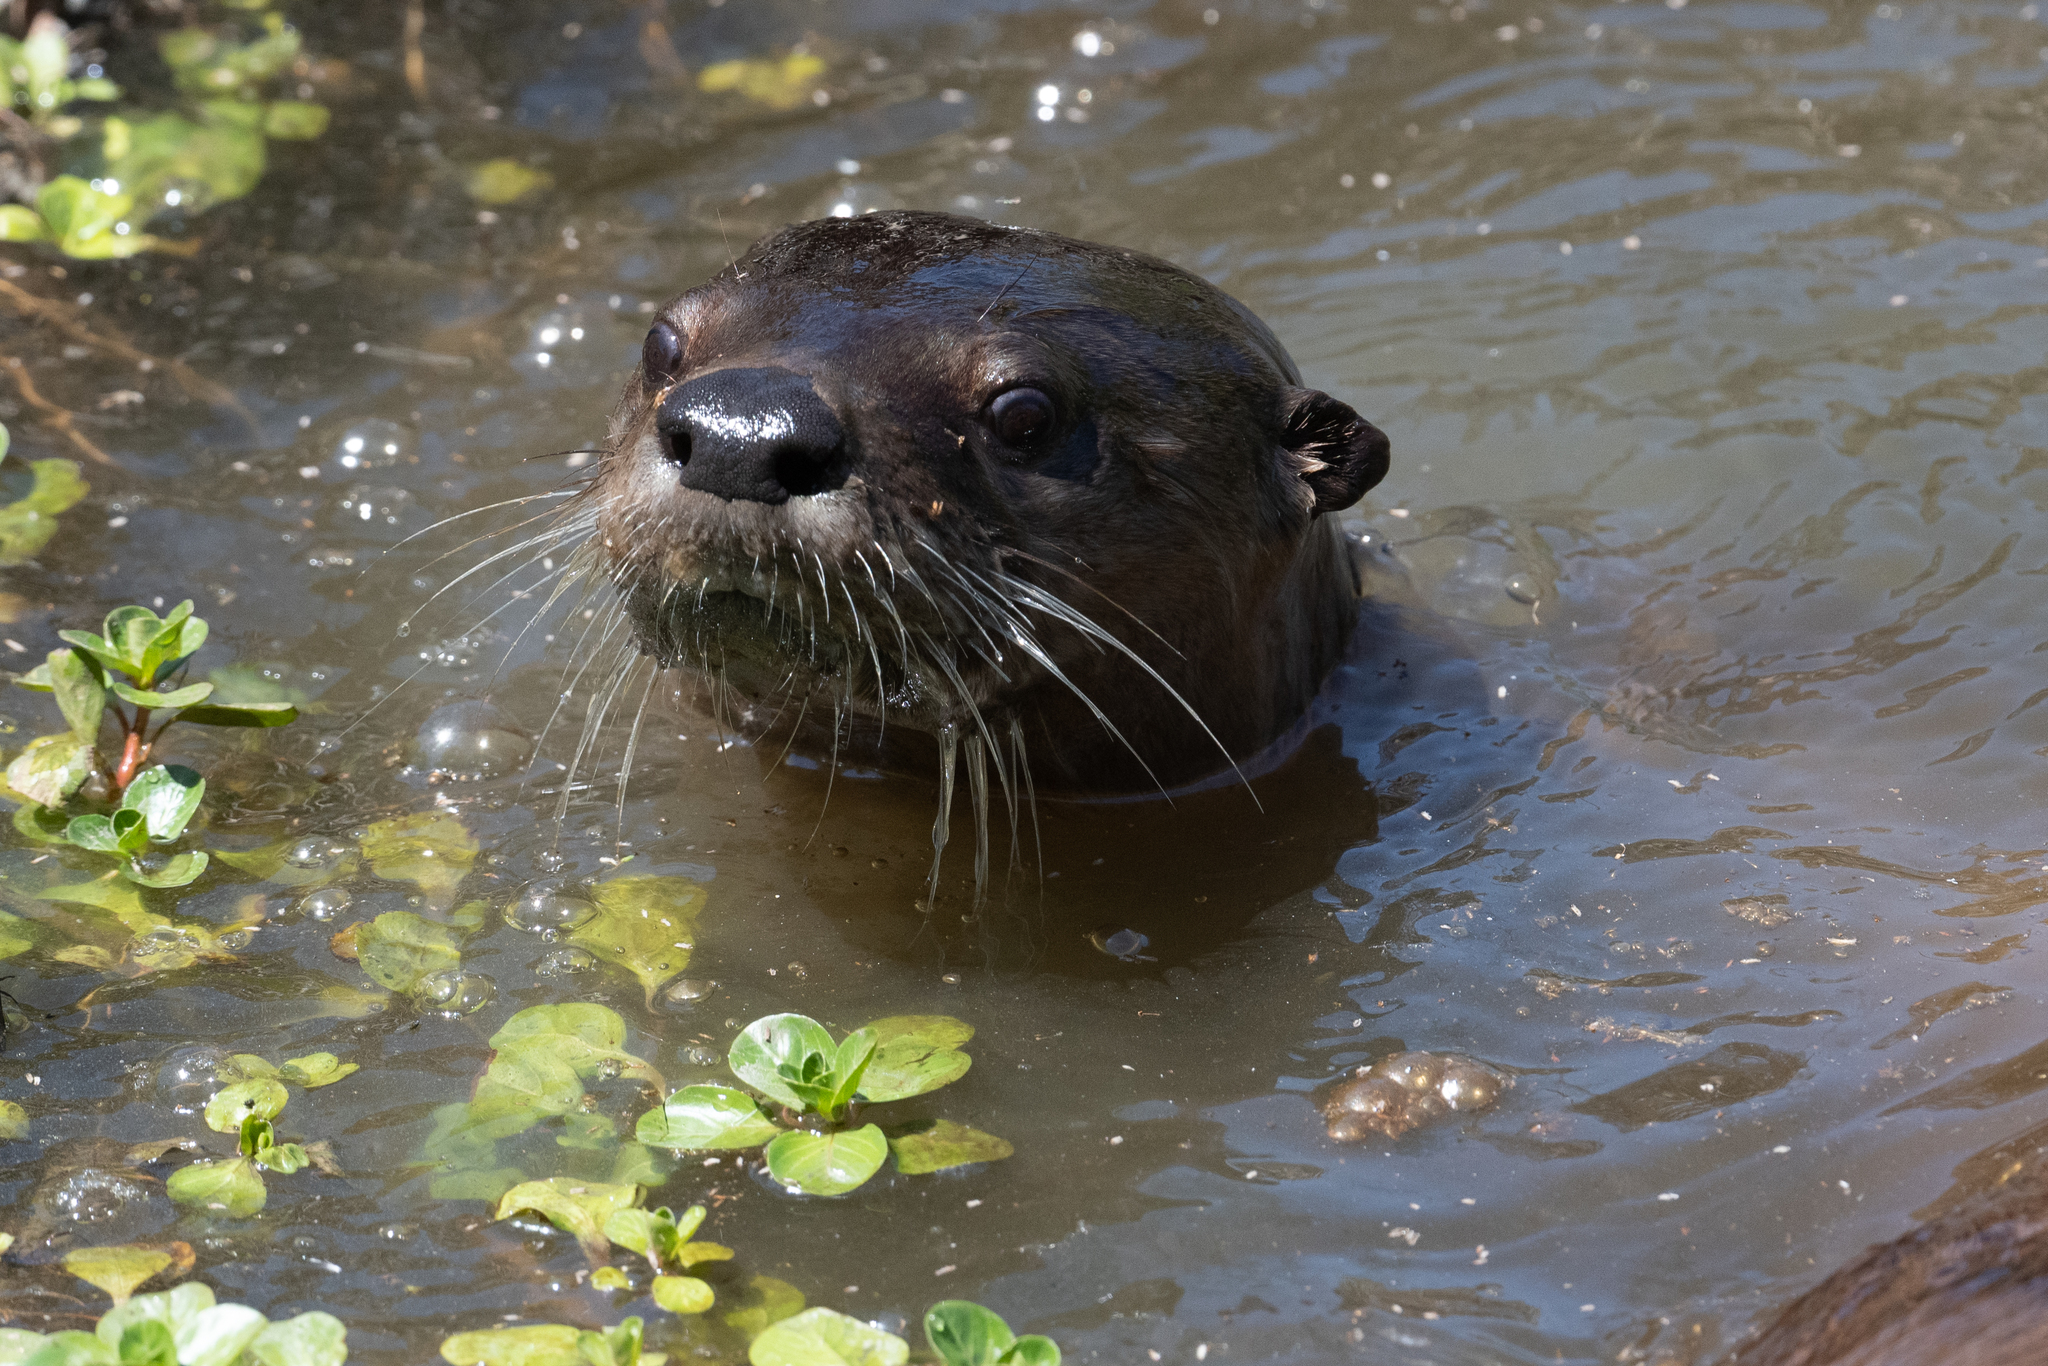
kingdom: Animalia
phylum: Chordata
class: Mammalia
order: Carnivora
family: Mustelidae
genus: Lontra
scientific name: Lontra canadensis
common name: North american river otter
